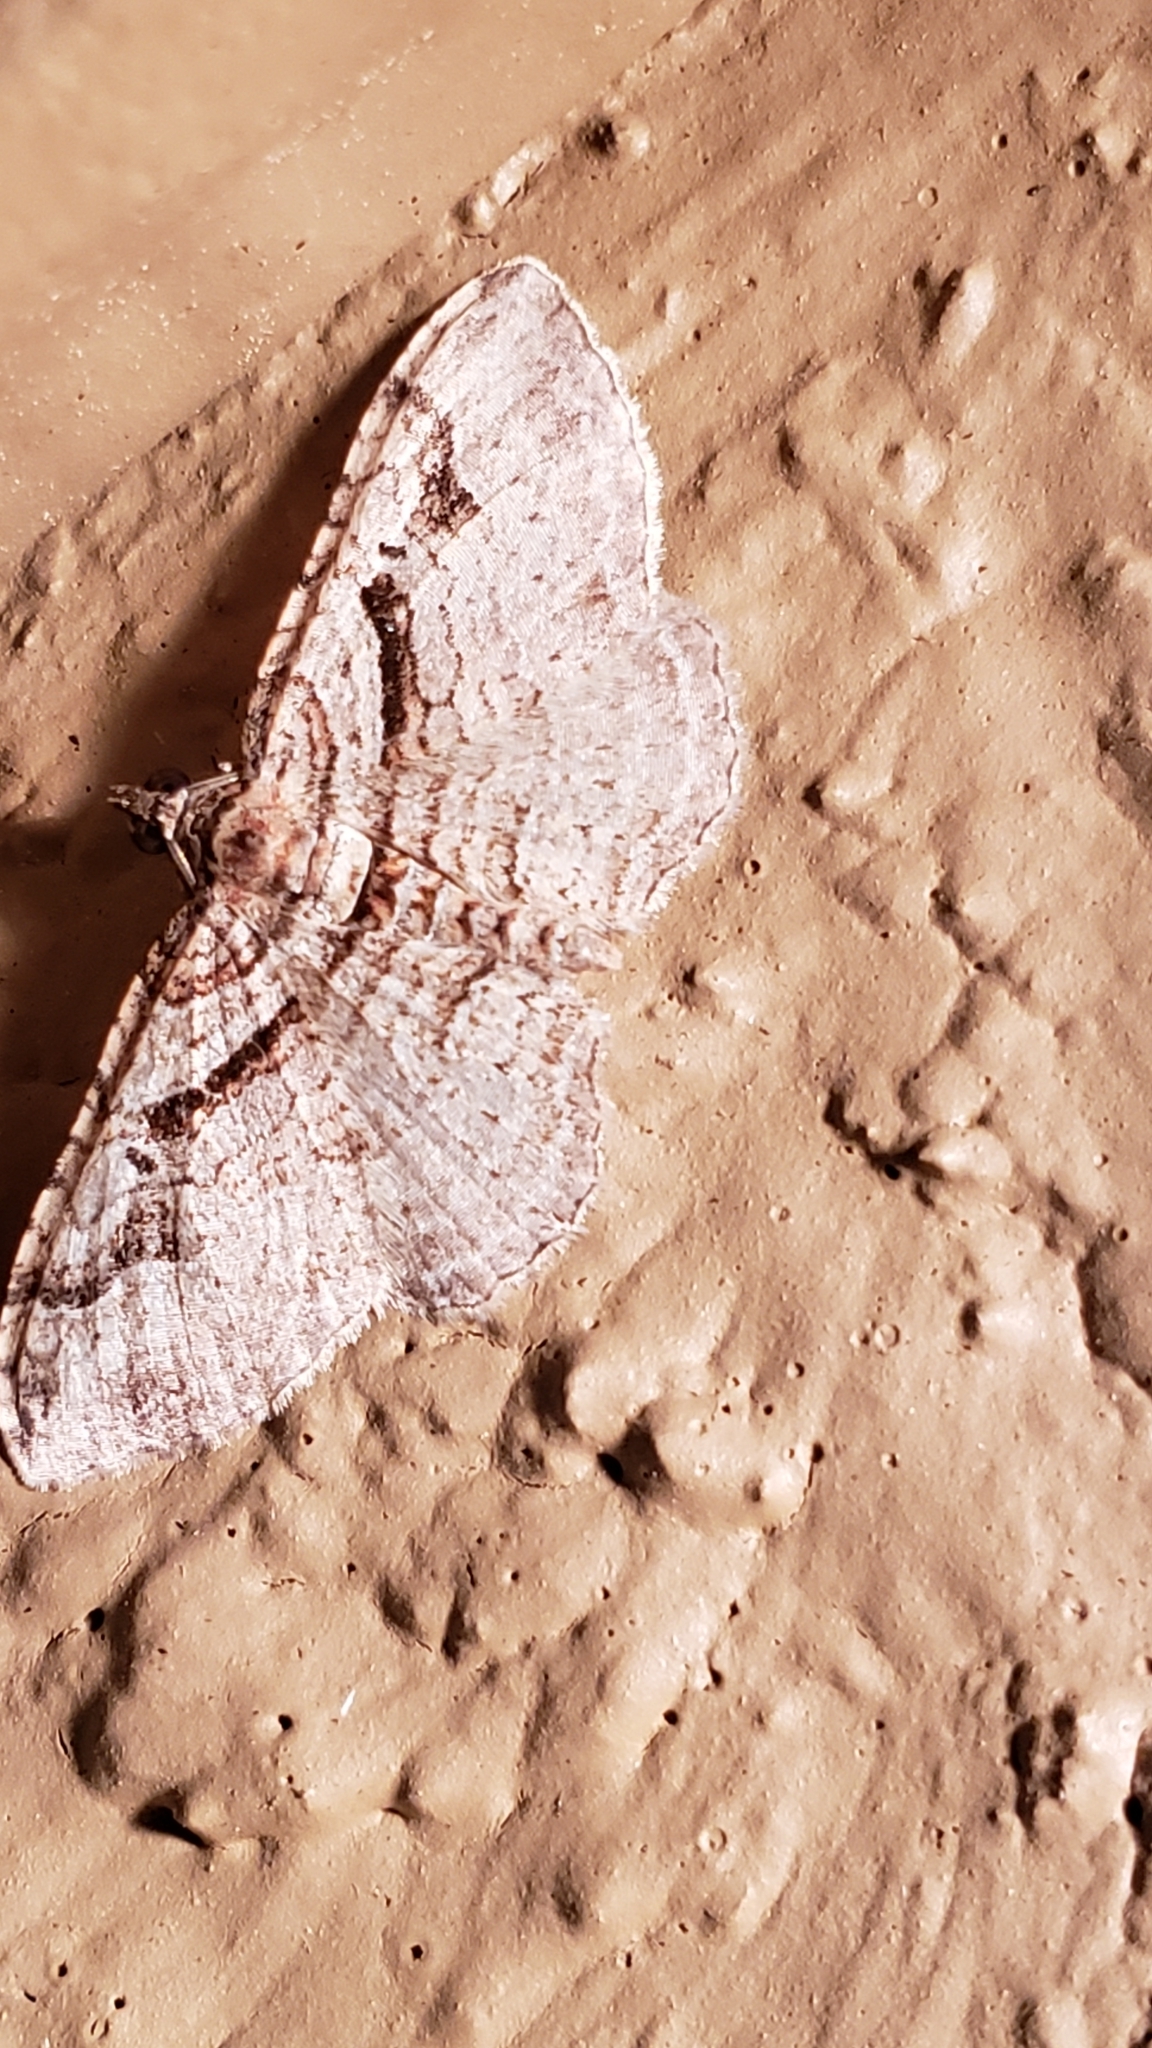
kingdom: Animalia
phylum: Arthropoda
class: Insecta
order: Lepidoptera
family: Geometridae
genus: Costaconvexa
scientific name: Costaconvexa centrostrigaria
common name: Bent-line carpet
